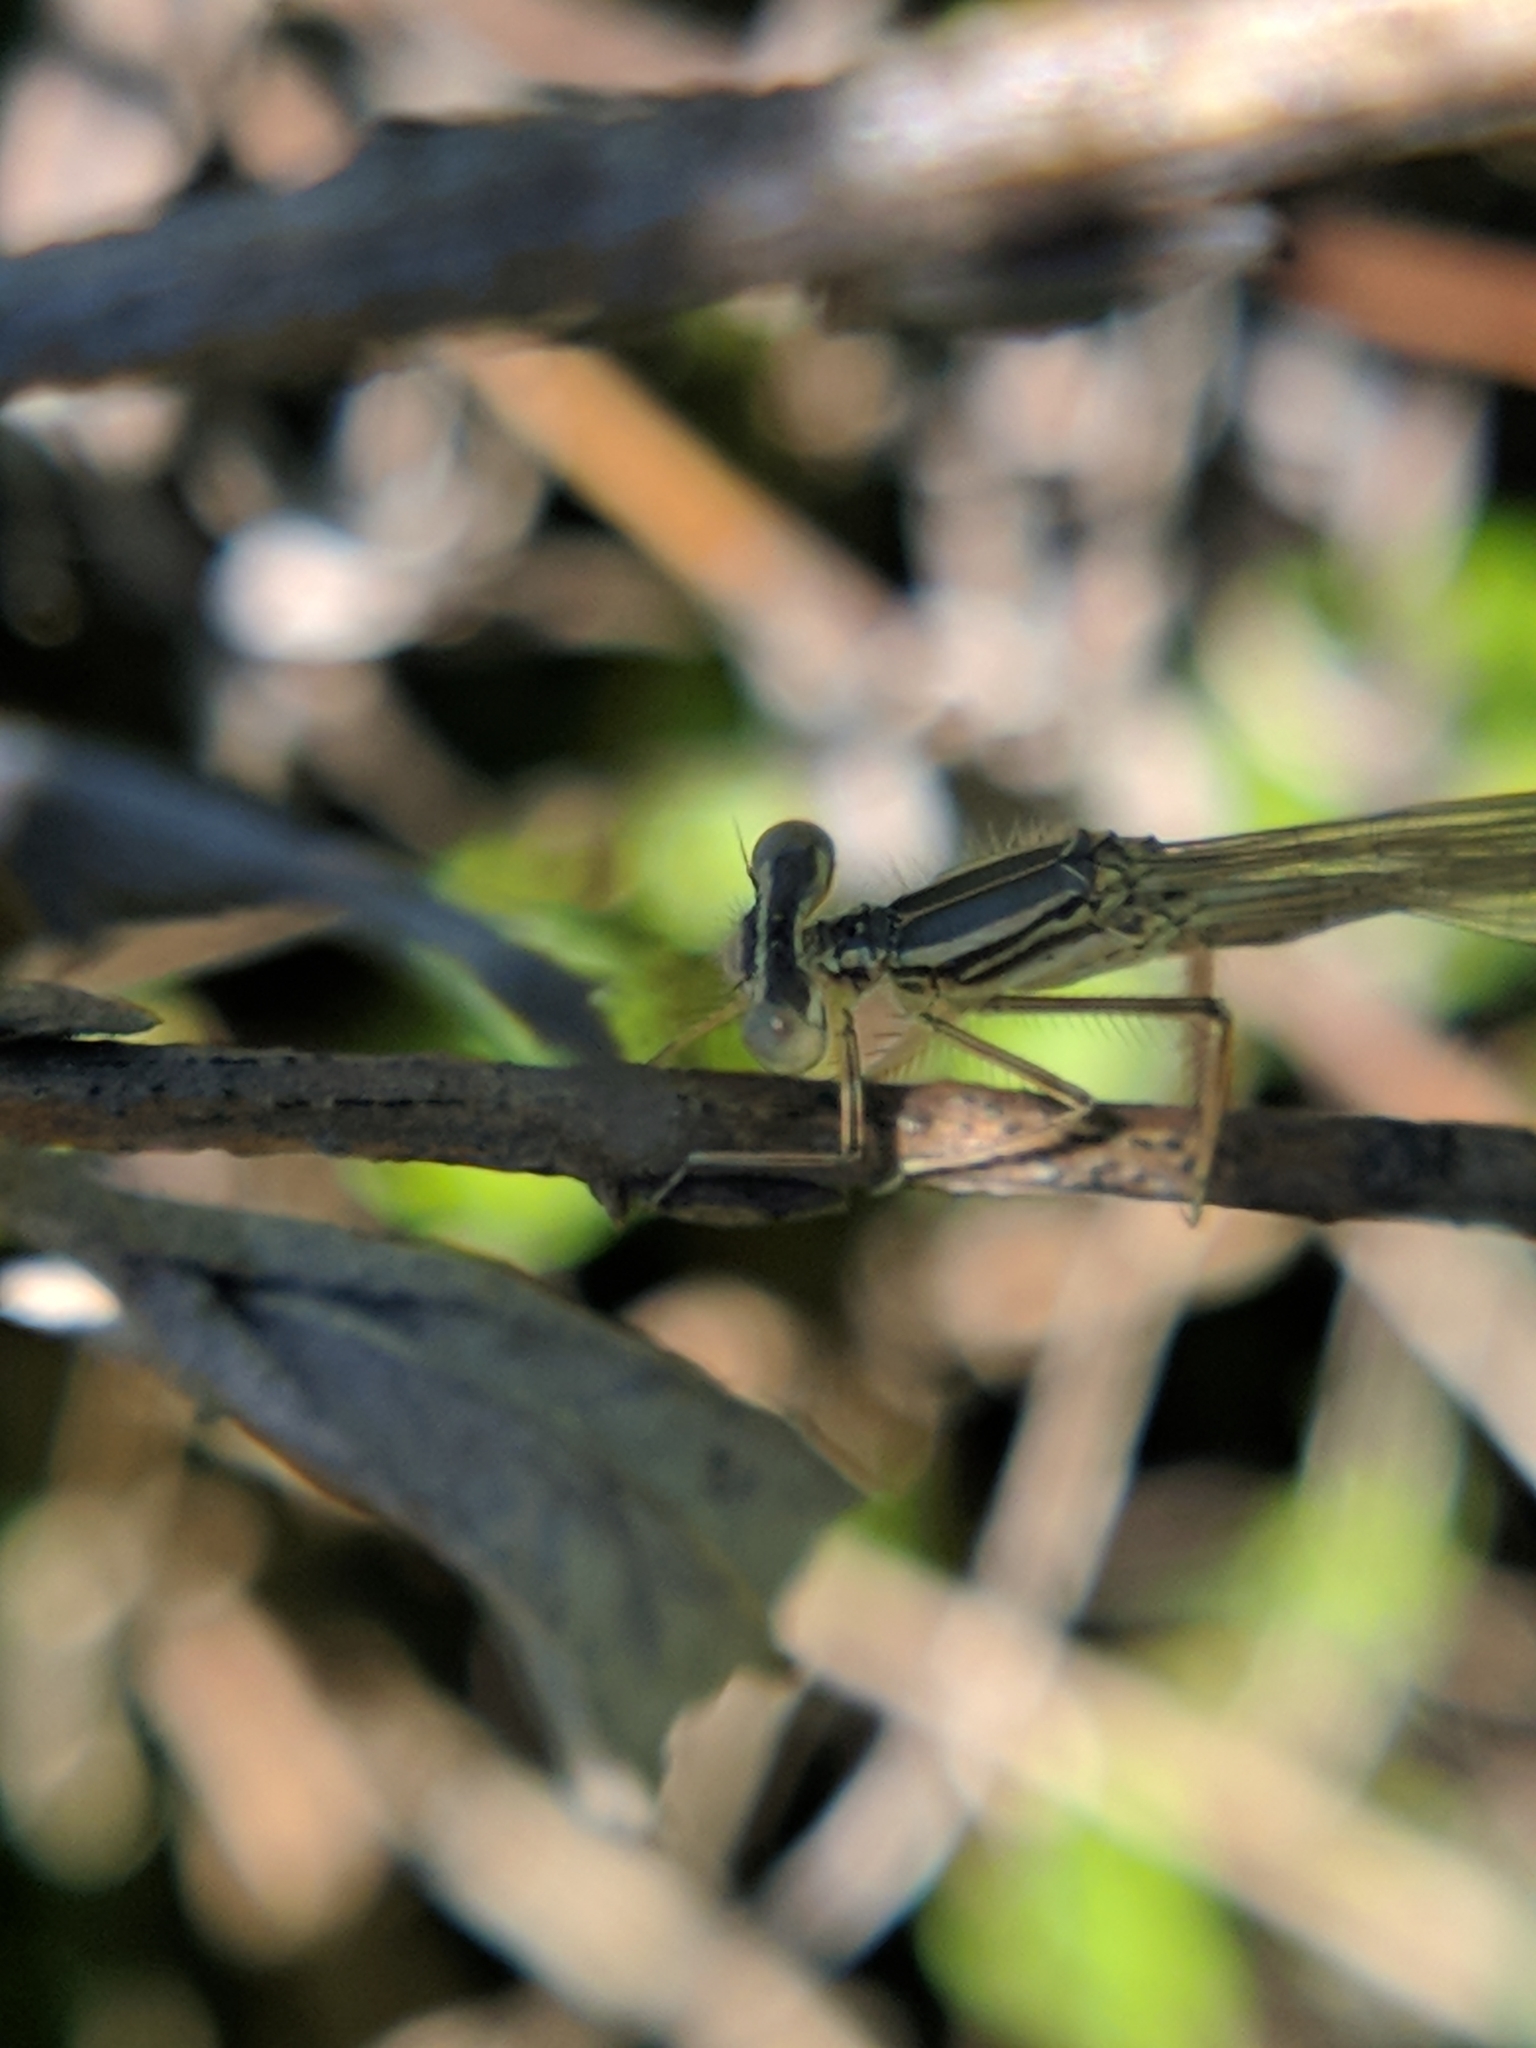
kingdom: Animalia
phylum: Arthropoda
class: Insecta
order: Odonata
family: Platycnemididae
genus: Platycnemis
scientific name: Platycnemis pennipes
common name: White-legged damselfly
